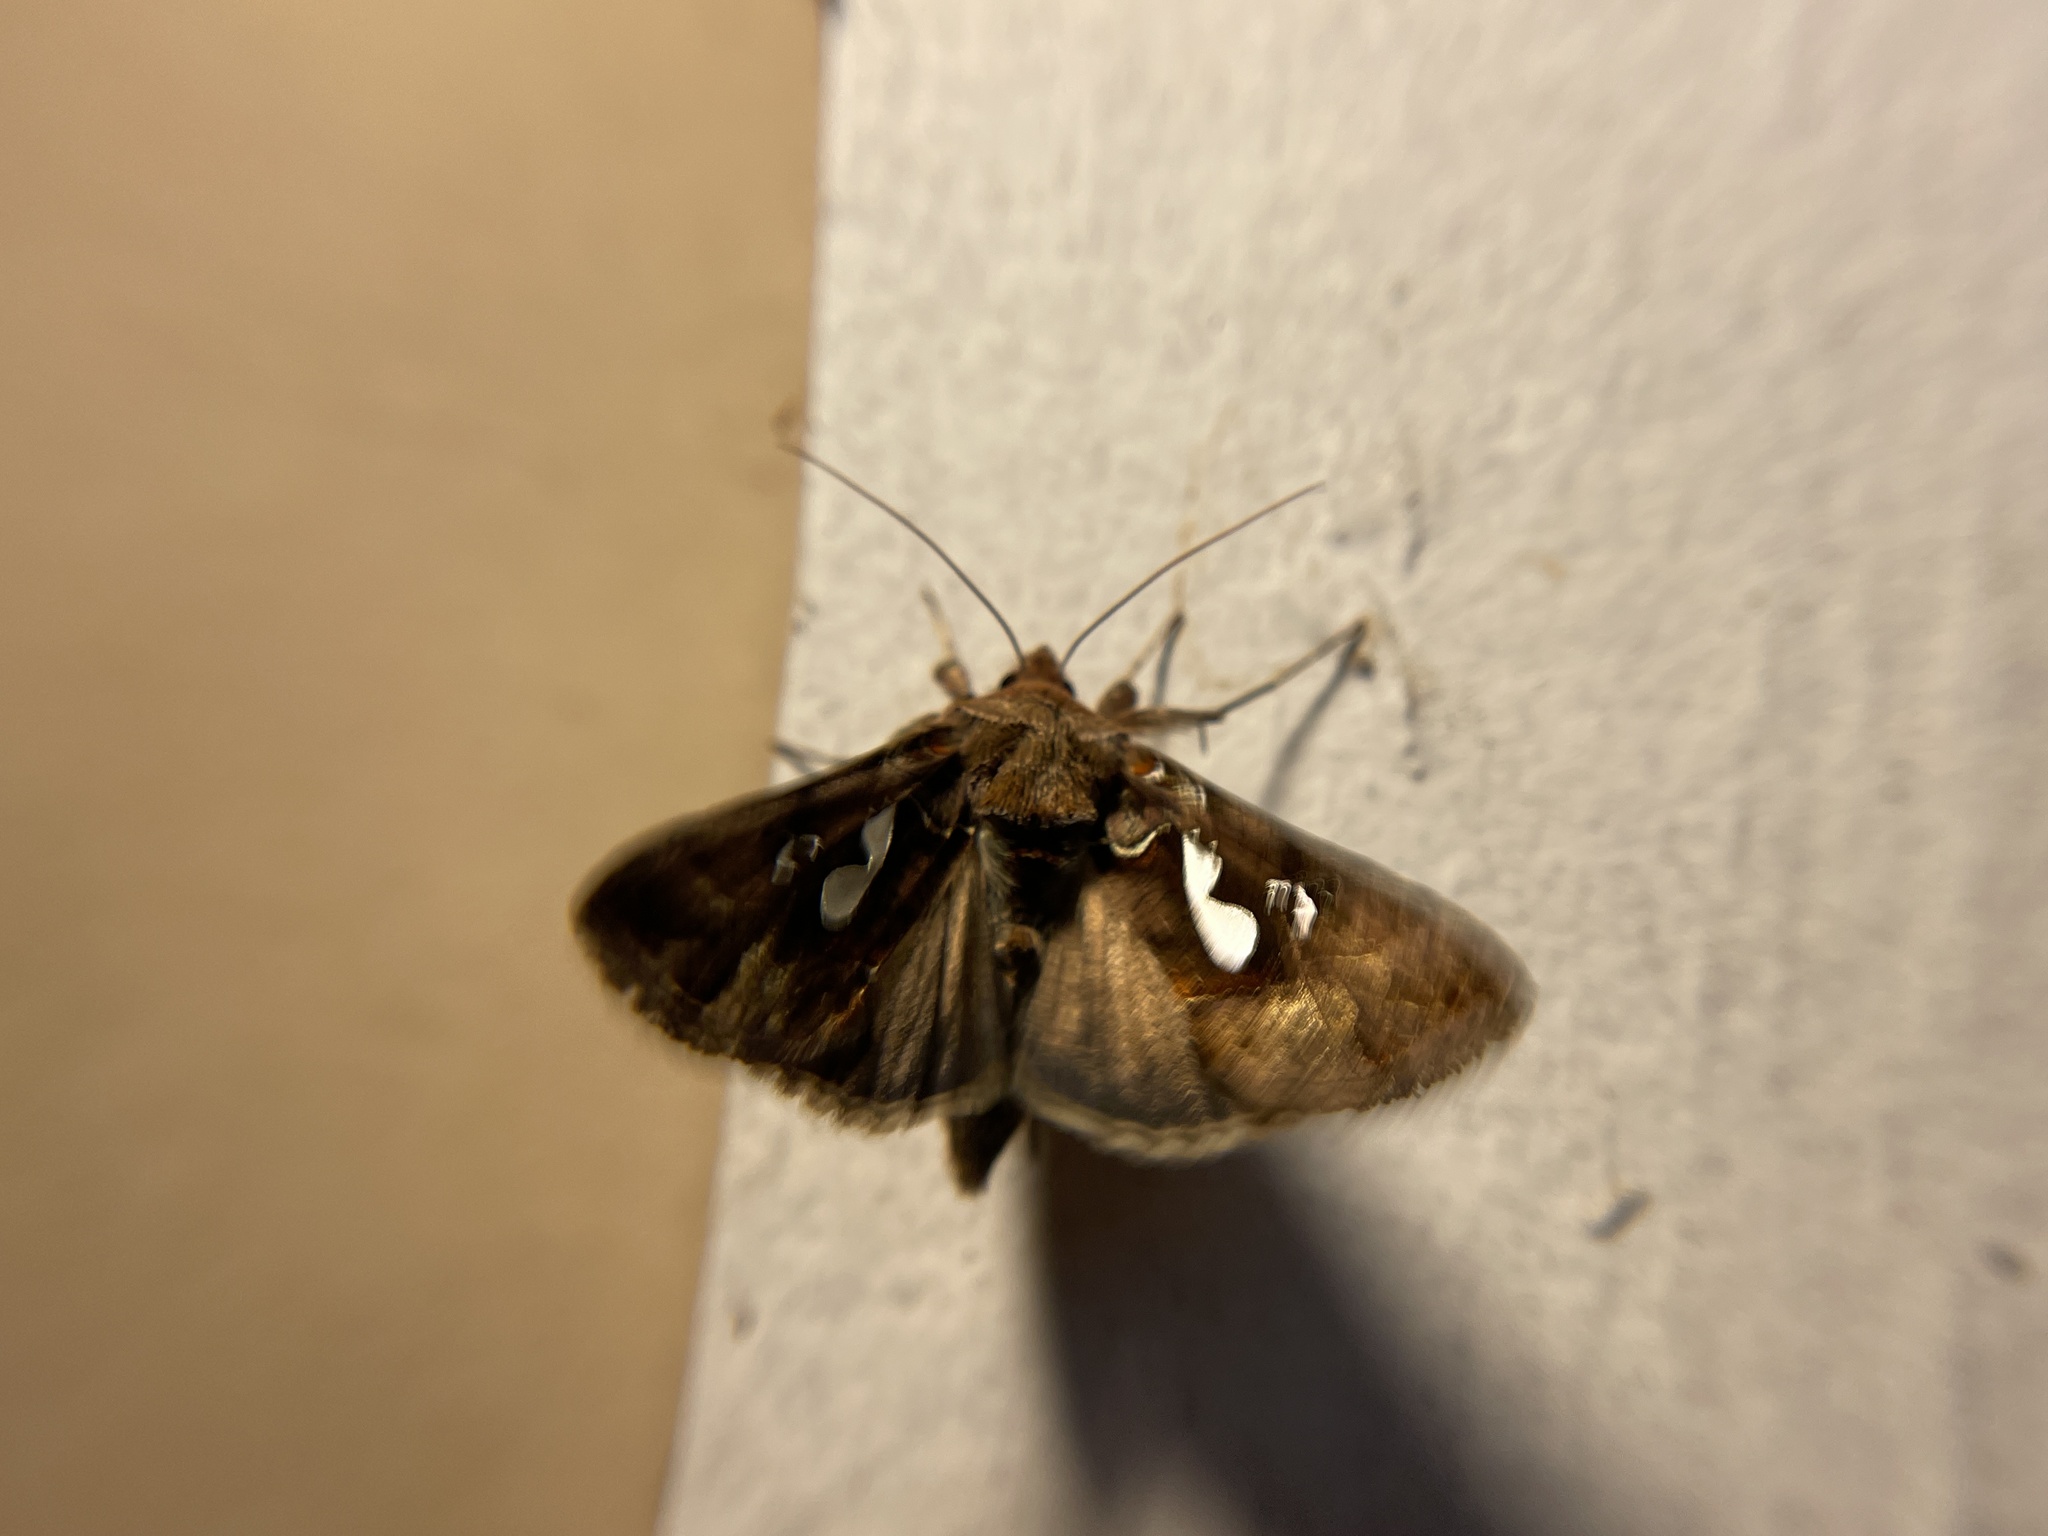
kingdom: Animalia
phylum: Arthropoda
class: Insecta
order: Lepidoptera
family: Noctuidae
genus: Megalographa
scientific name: Megalographa biloba
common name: Cutworm
